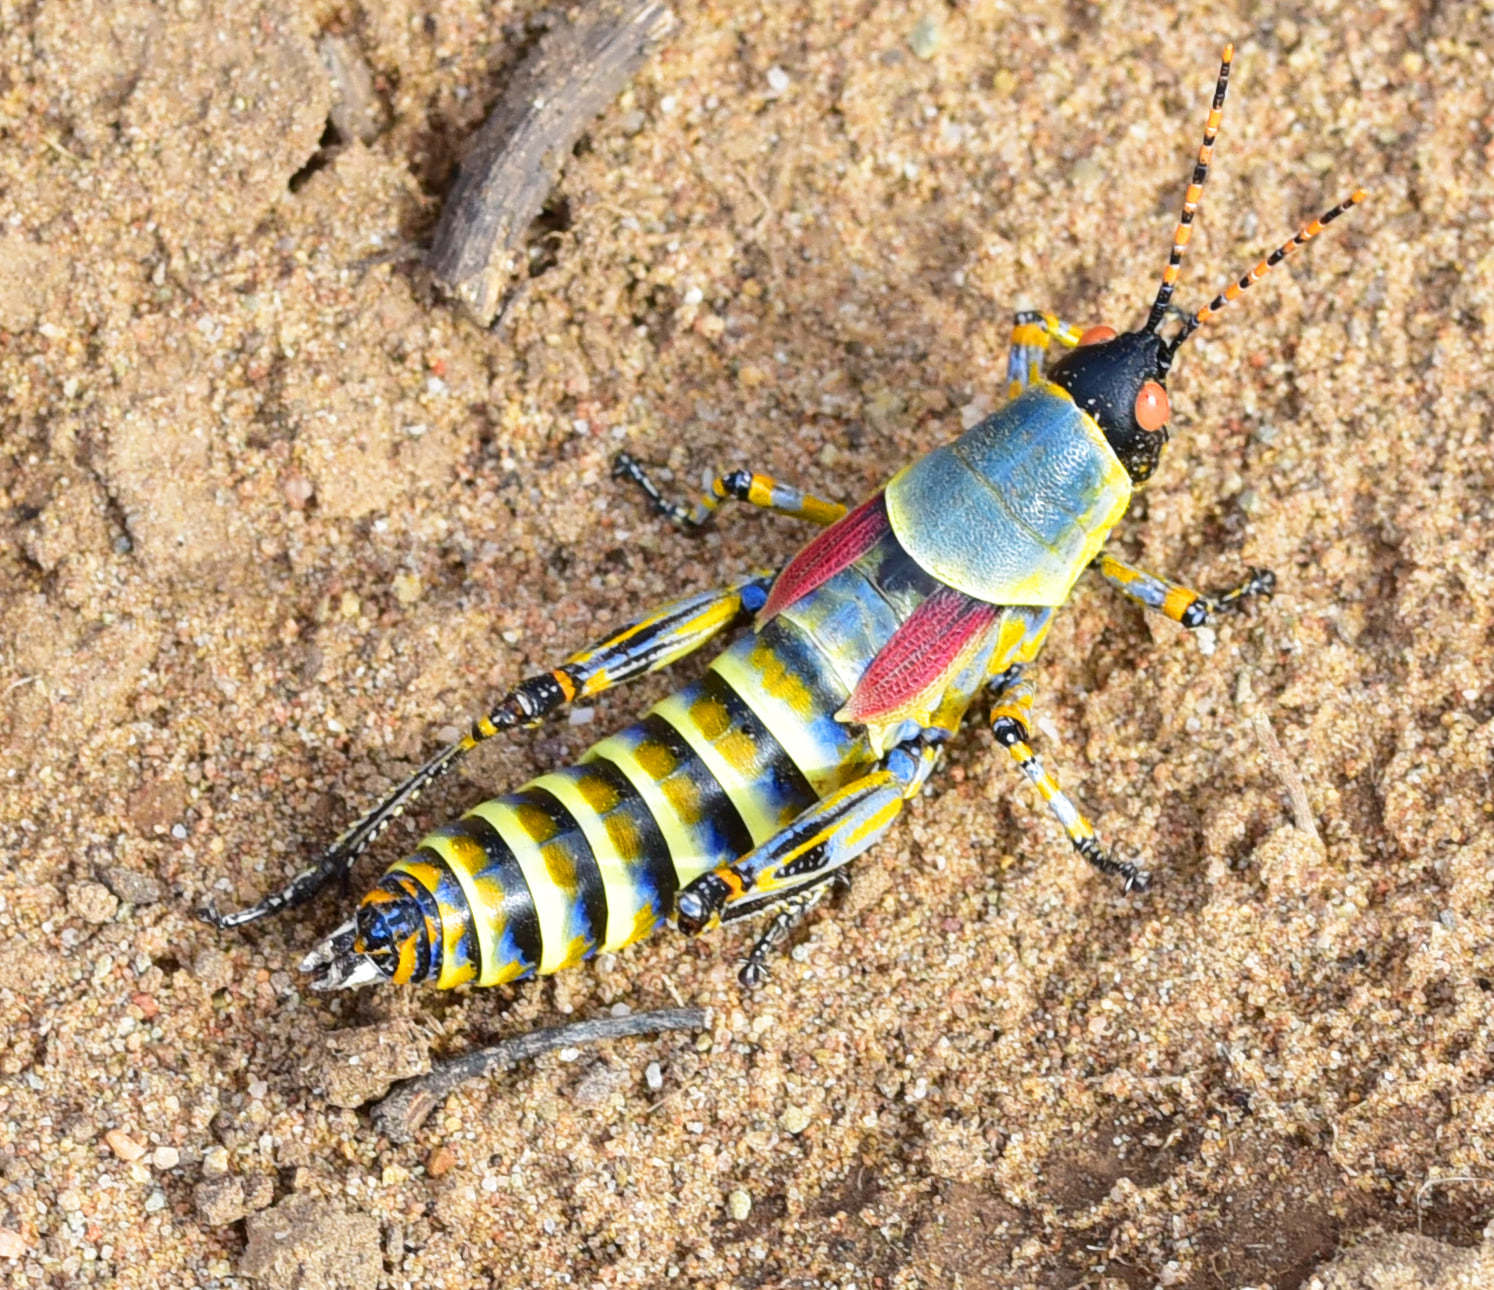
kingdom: Animalia
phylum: Arthropoda
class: Insecta
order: Orthoptera
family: Pyrgomorphidae
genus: Zonocerus
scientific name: Zonocerus elegans
